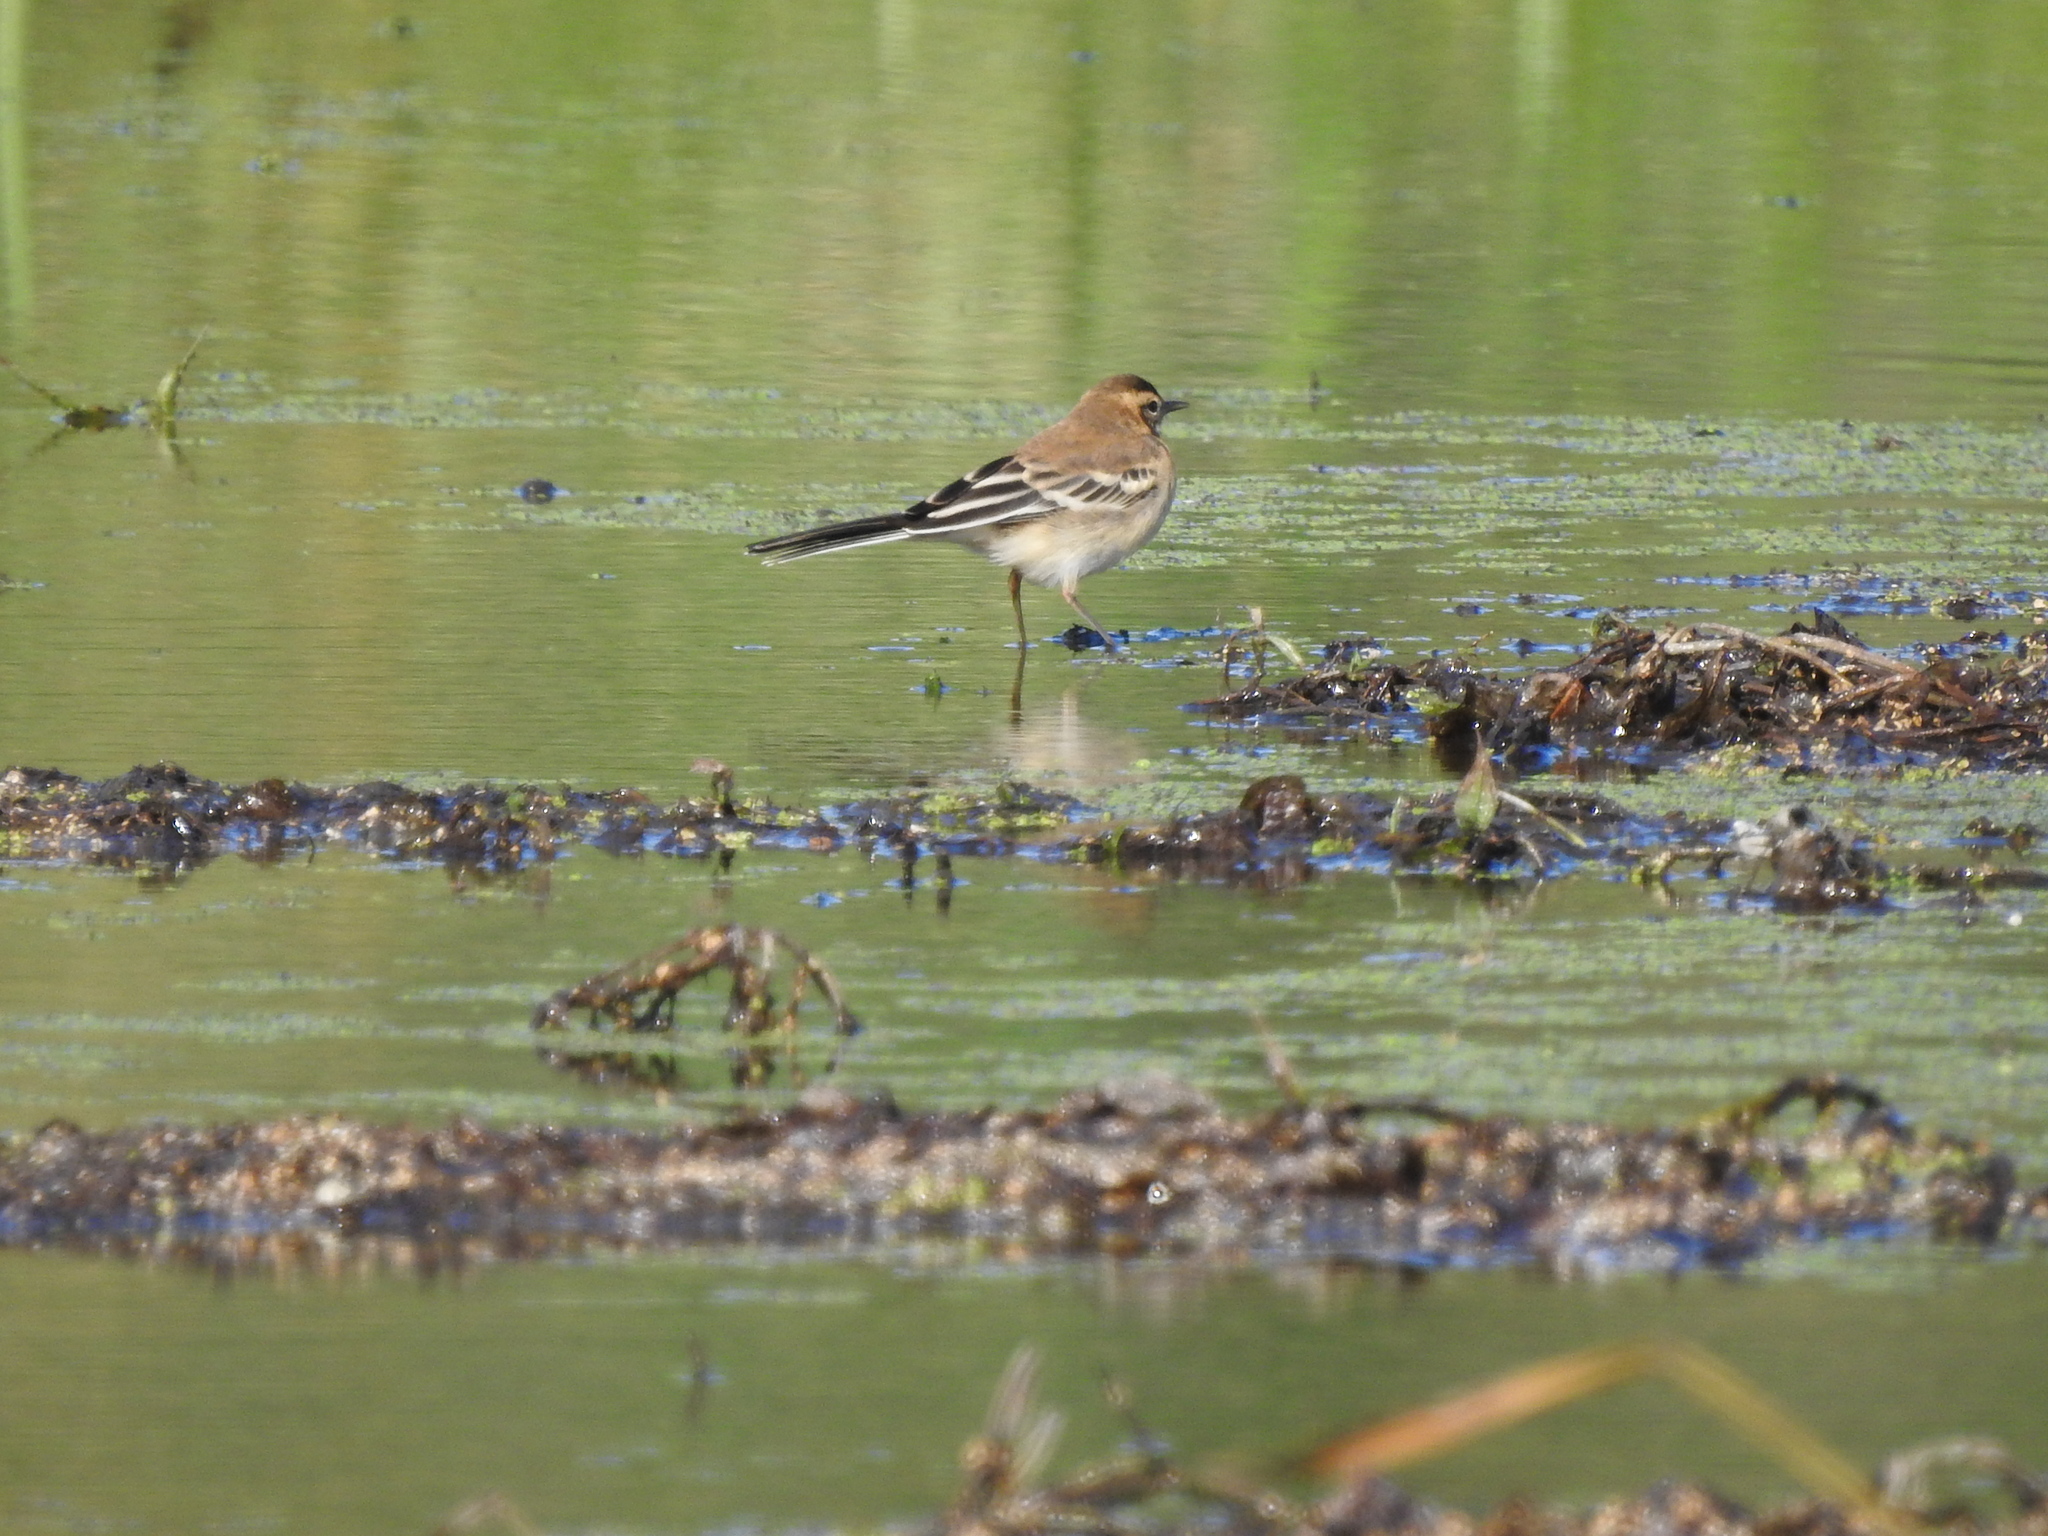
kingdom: Animalia
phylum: Chordata
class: Aves
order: Passeriformes
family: Motacillidae
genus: Motacilla
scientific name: Motacilla citreola
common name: Citrine wagtail
